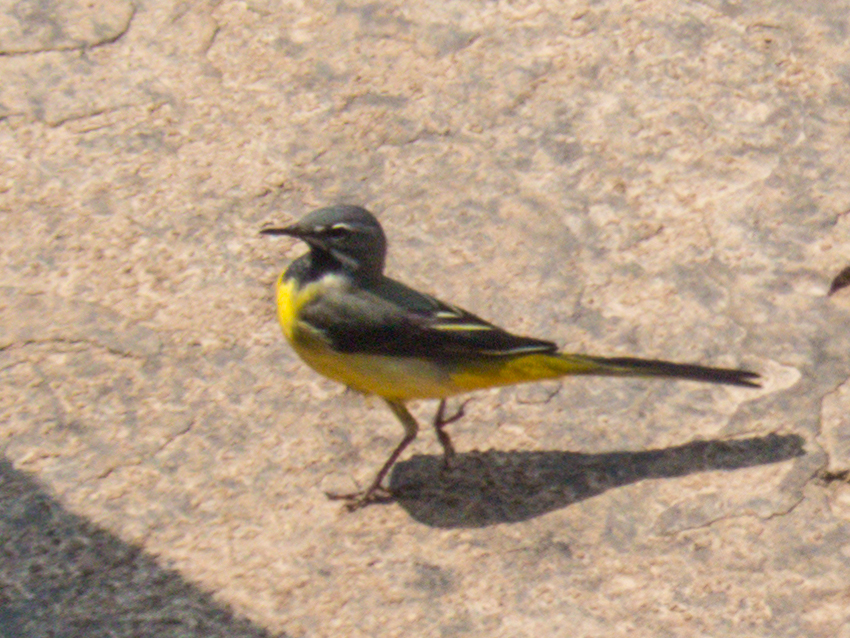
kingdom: Animalia
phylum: Chordata
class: Aves
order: Passeriformes
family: Motacillidae
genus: Motacilla
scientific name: Motacilla cinerea
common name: Grey wagtail
